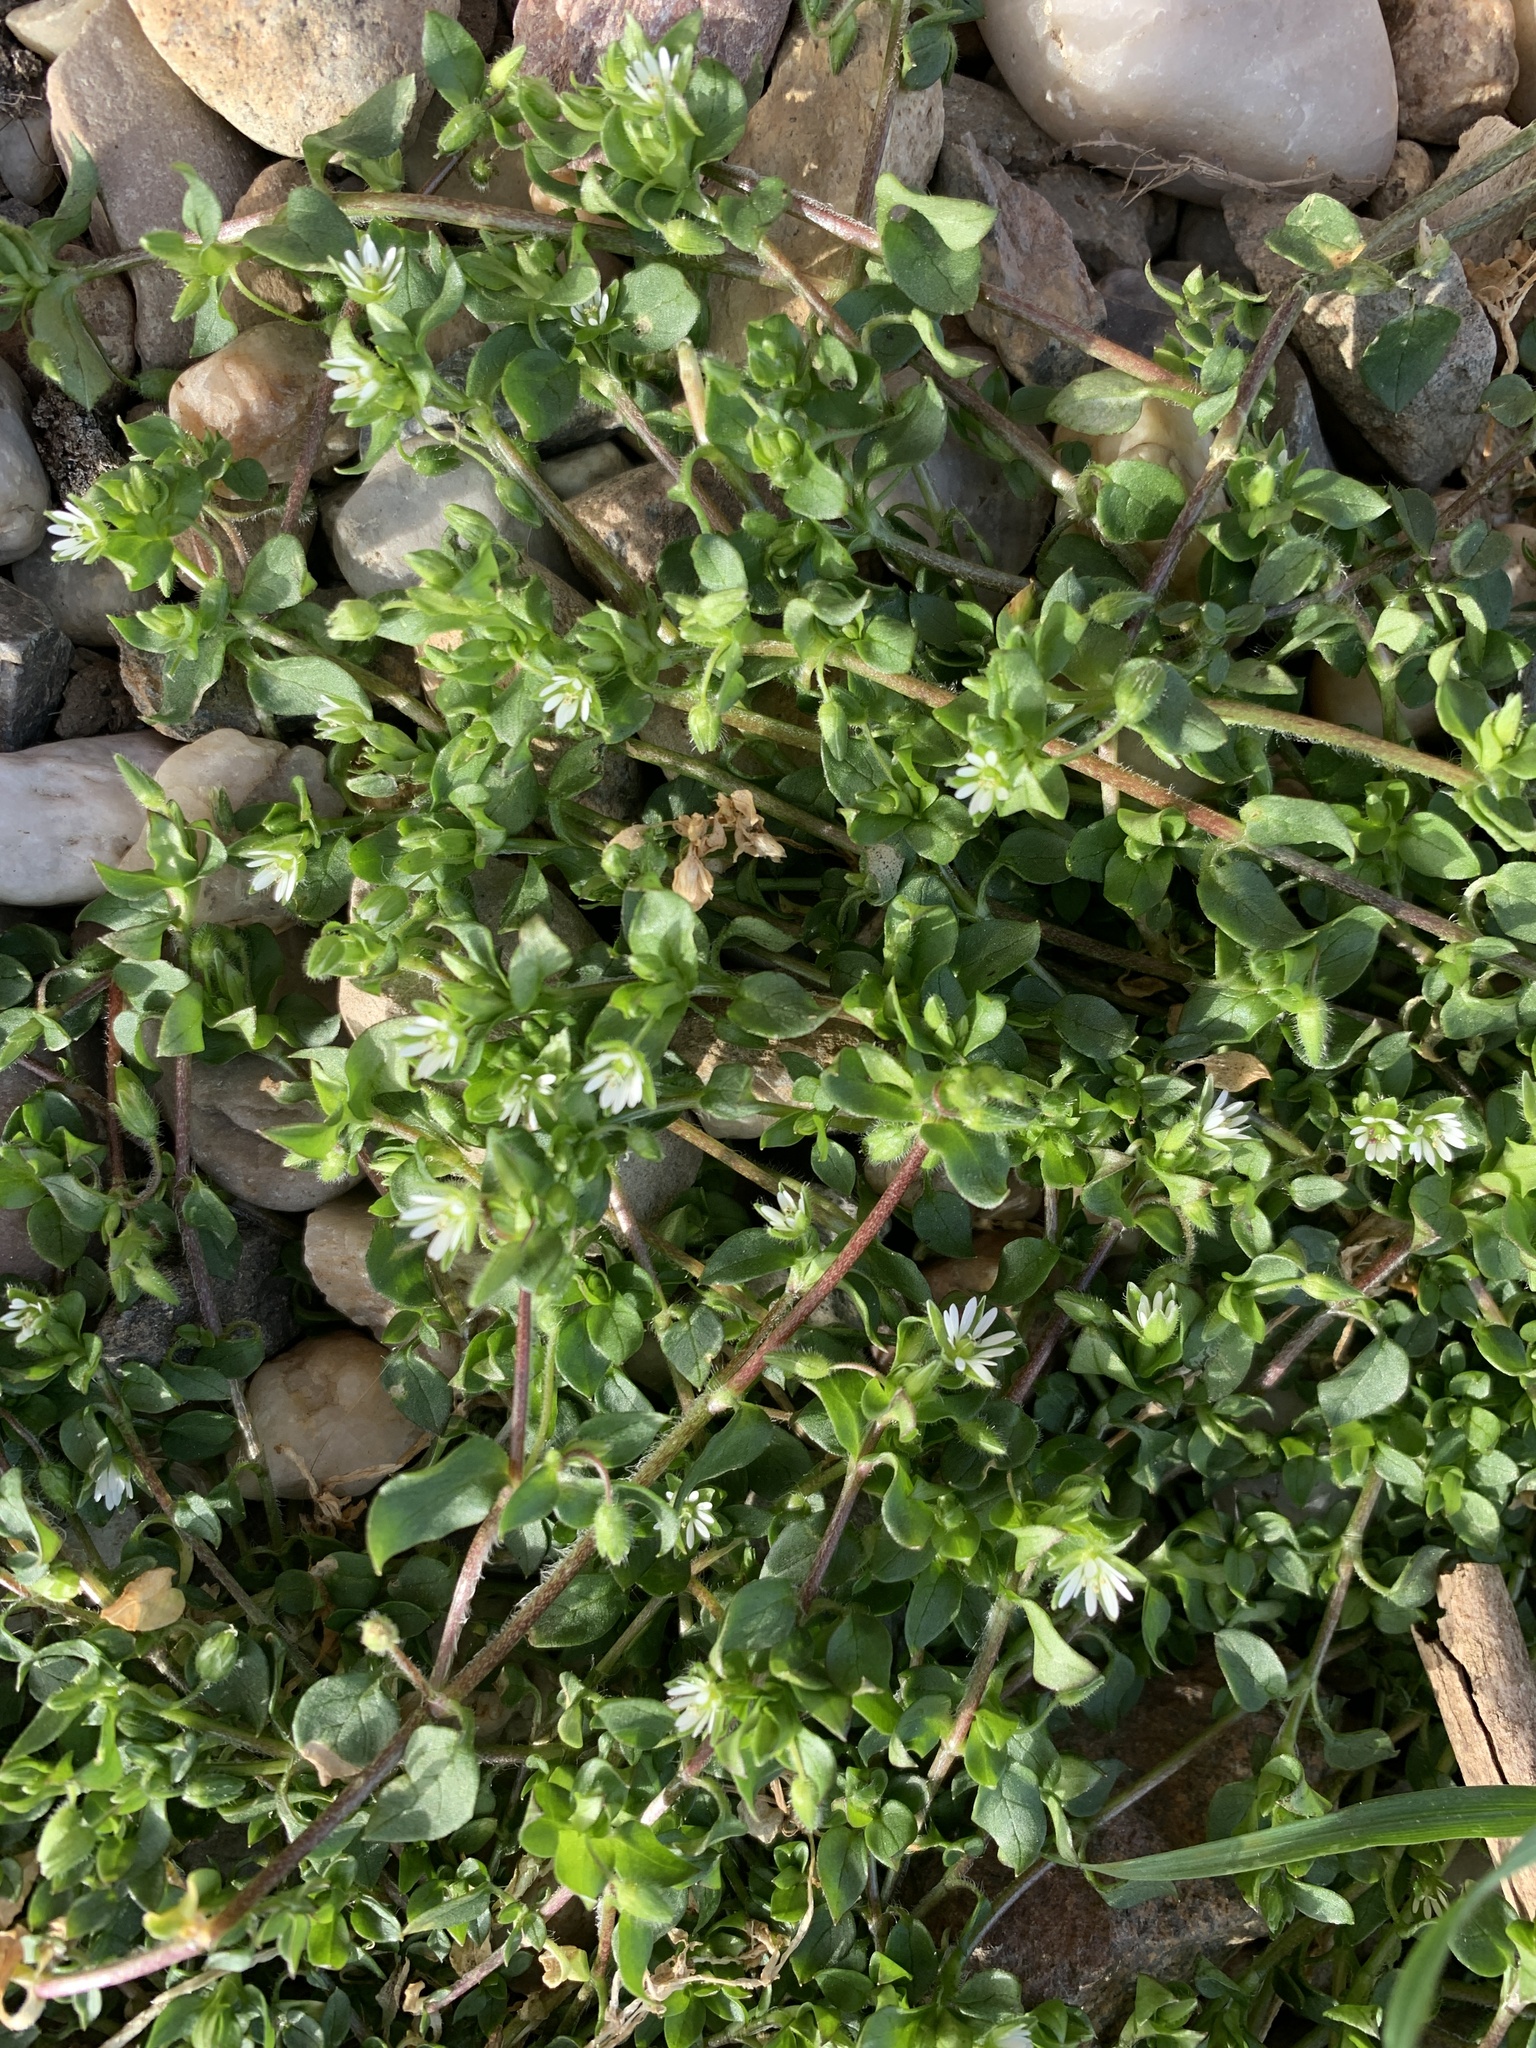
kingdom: Plantae
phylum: Tracheophyta
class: Magnoliopsida
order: Caryophyllales
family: Caryophyllaceae
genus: Stellaria
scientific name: Stellaria media
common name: Common chickweed
